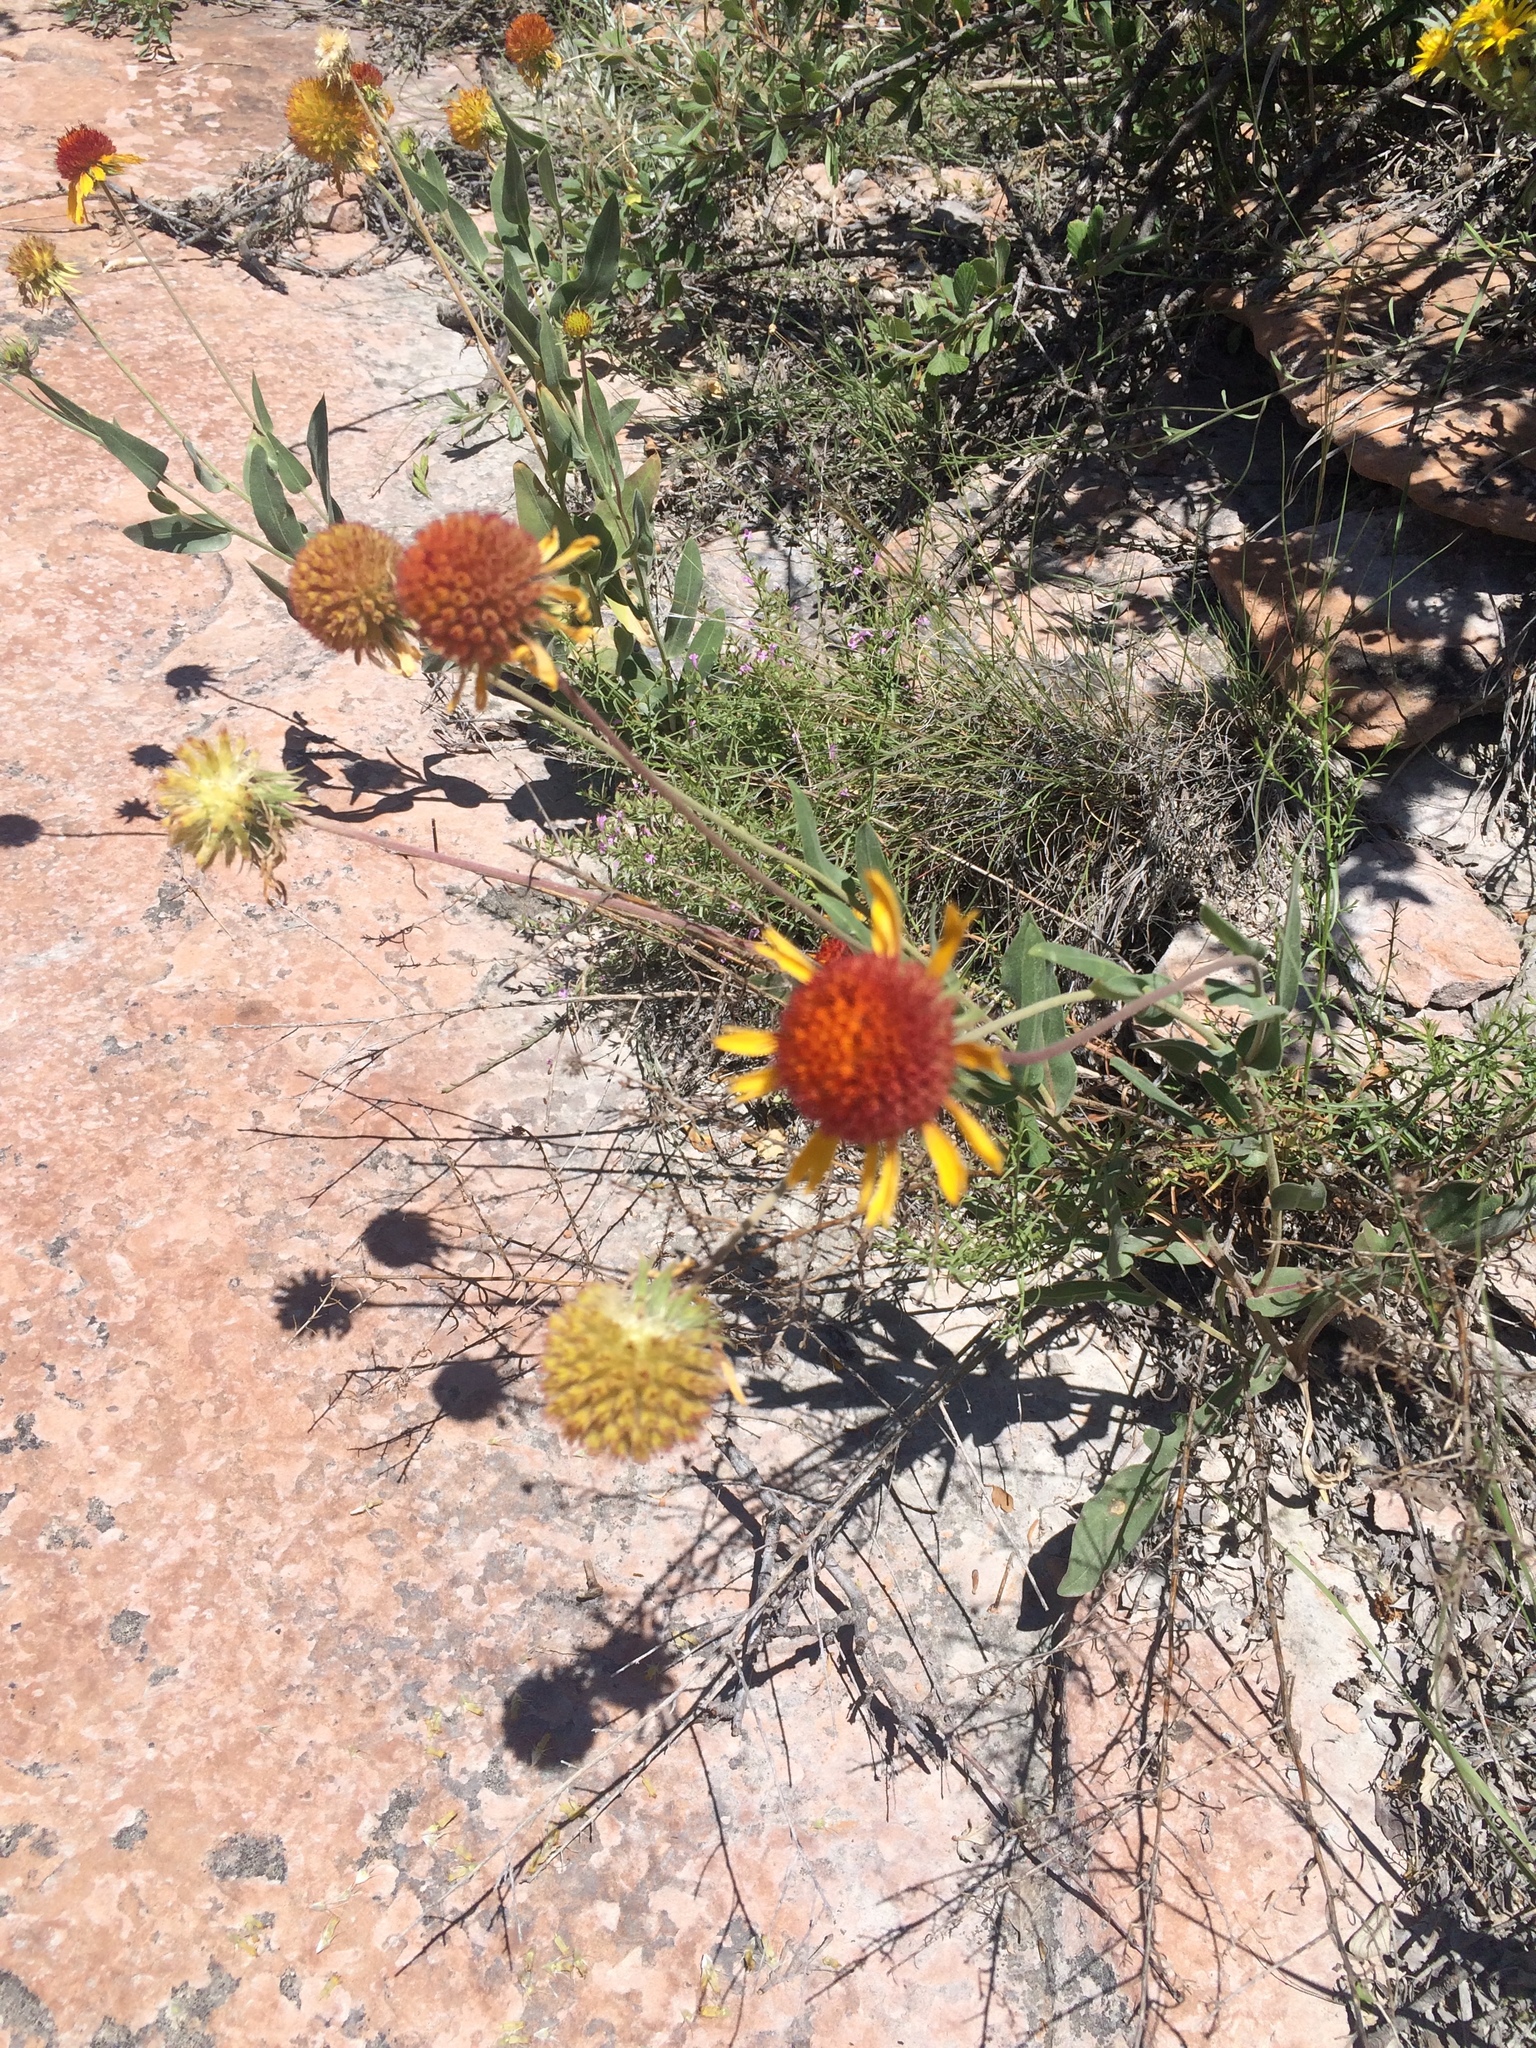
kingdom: Plantae
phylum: Tracheophyta
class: Magnoliopsida
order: Asterales
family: Asteraceae
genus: Gaillardia
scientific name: Gaillardia aristata
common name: Blanket-flower
